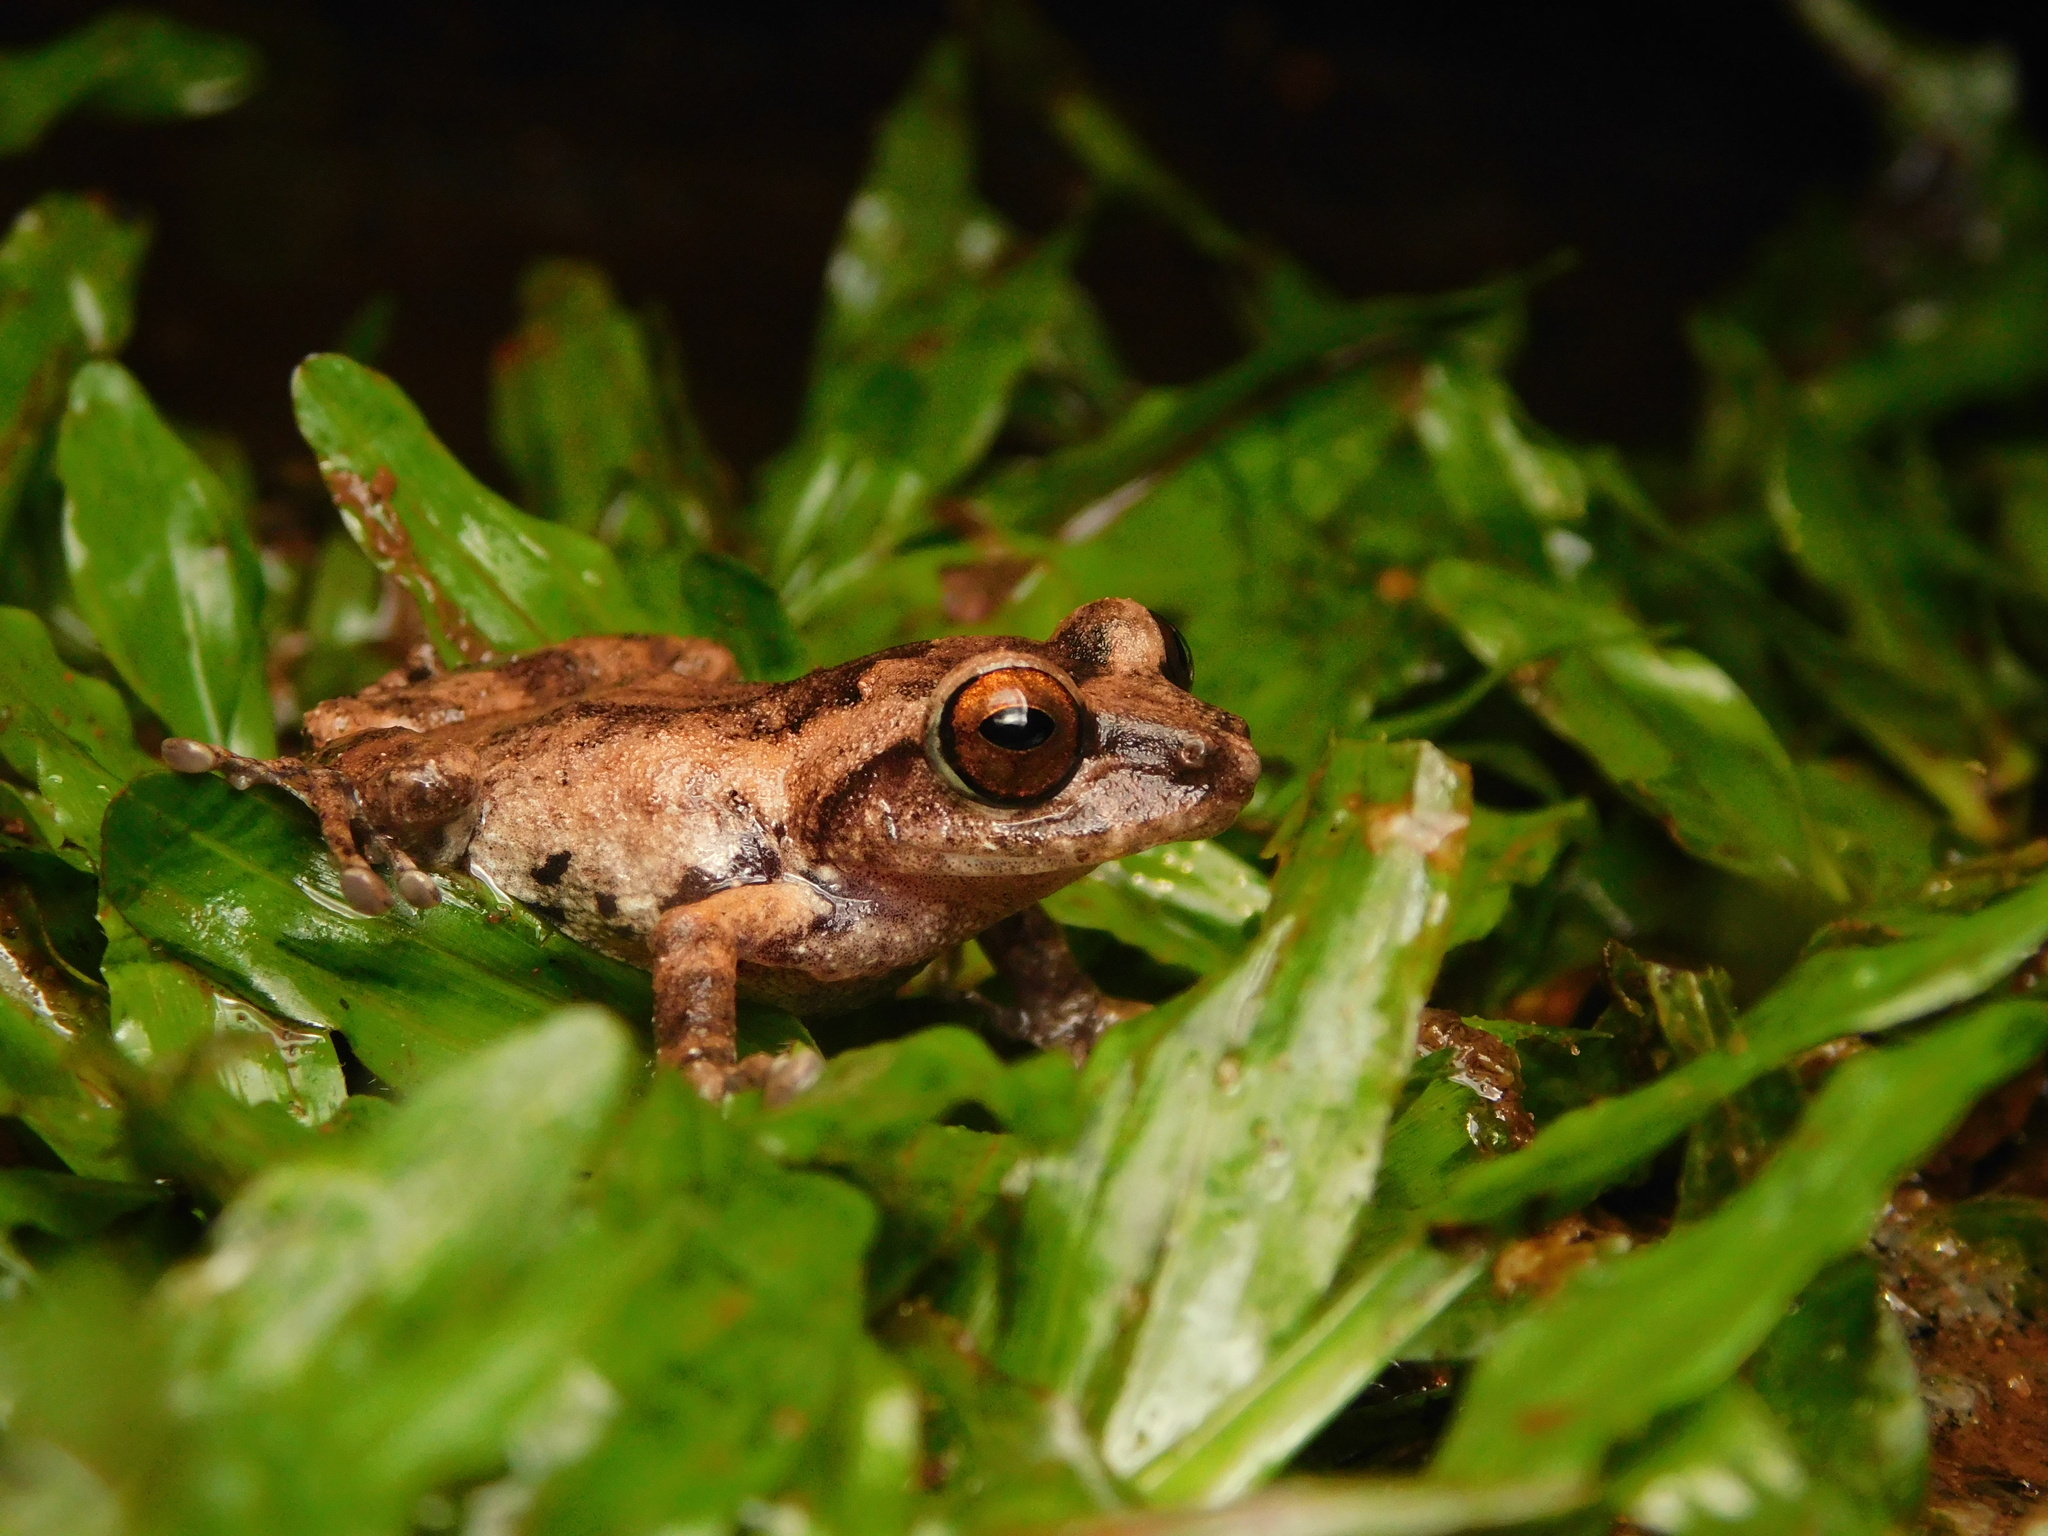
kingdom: Animalia
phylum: Chordata
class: Amphibia
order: Anura
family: Rhacophoridae
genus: Raorchestes
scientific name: Raorchestes chromasynchysi
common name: Confusing green bush frog
